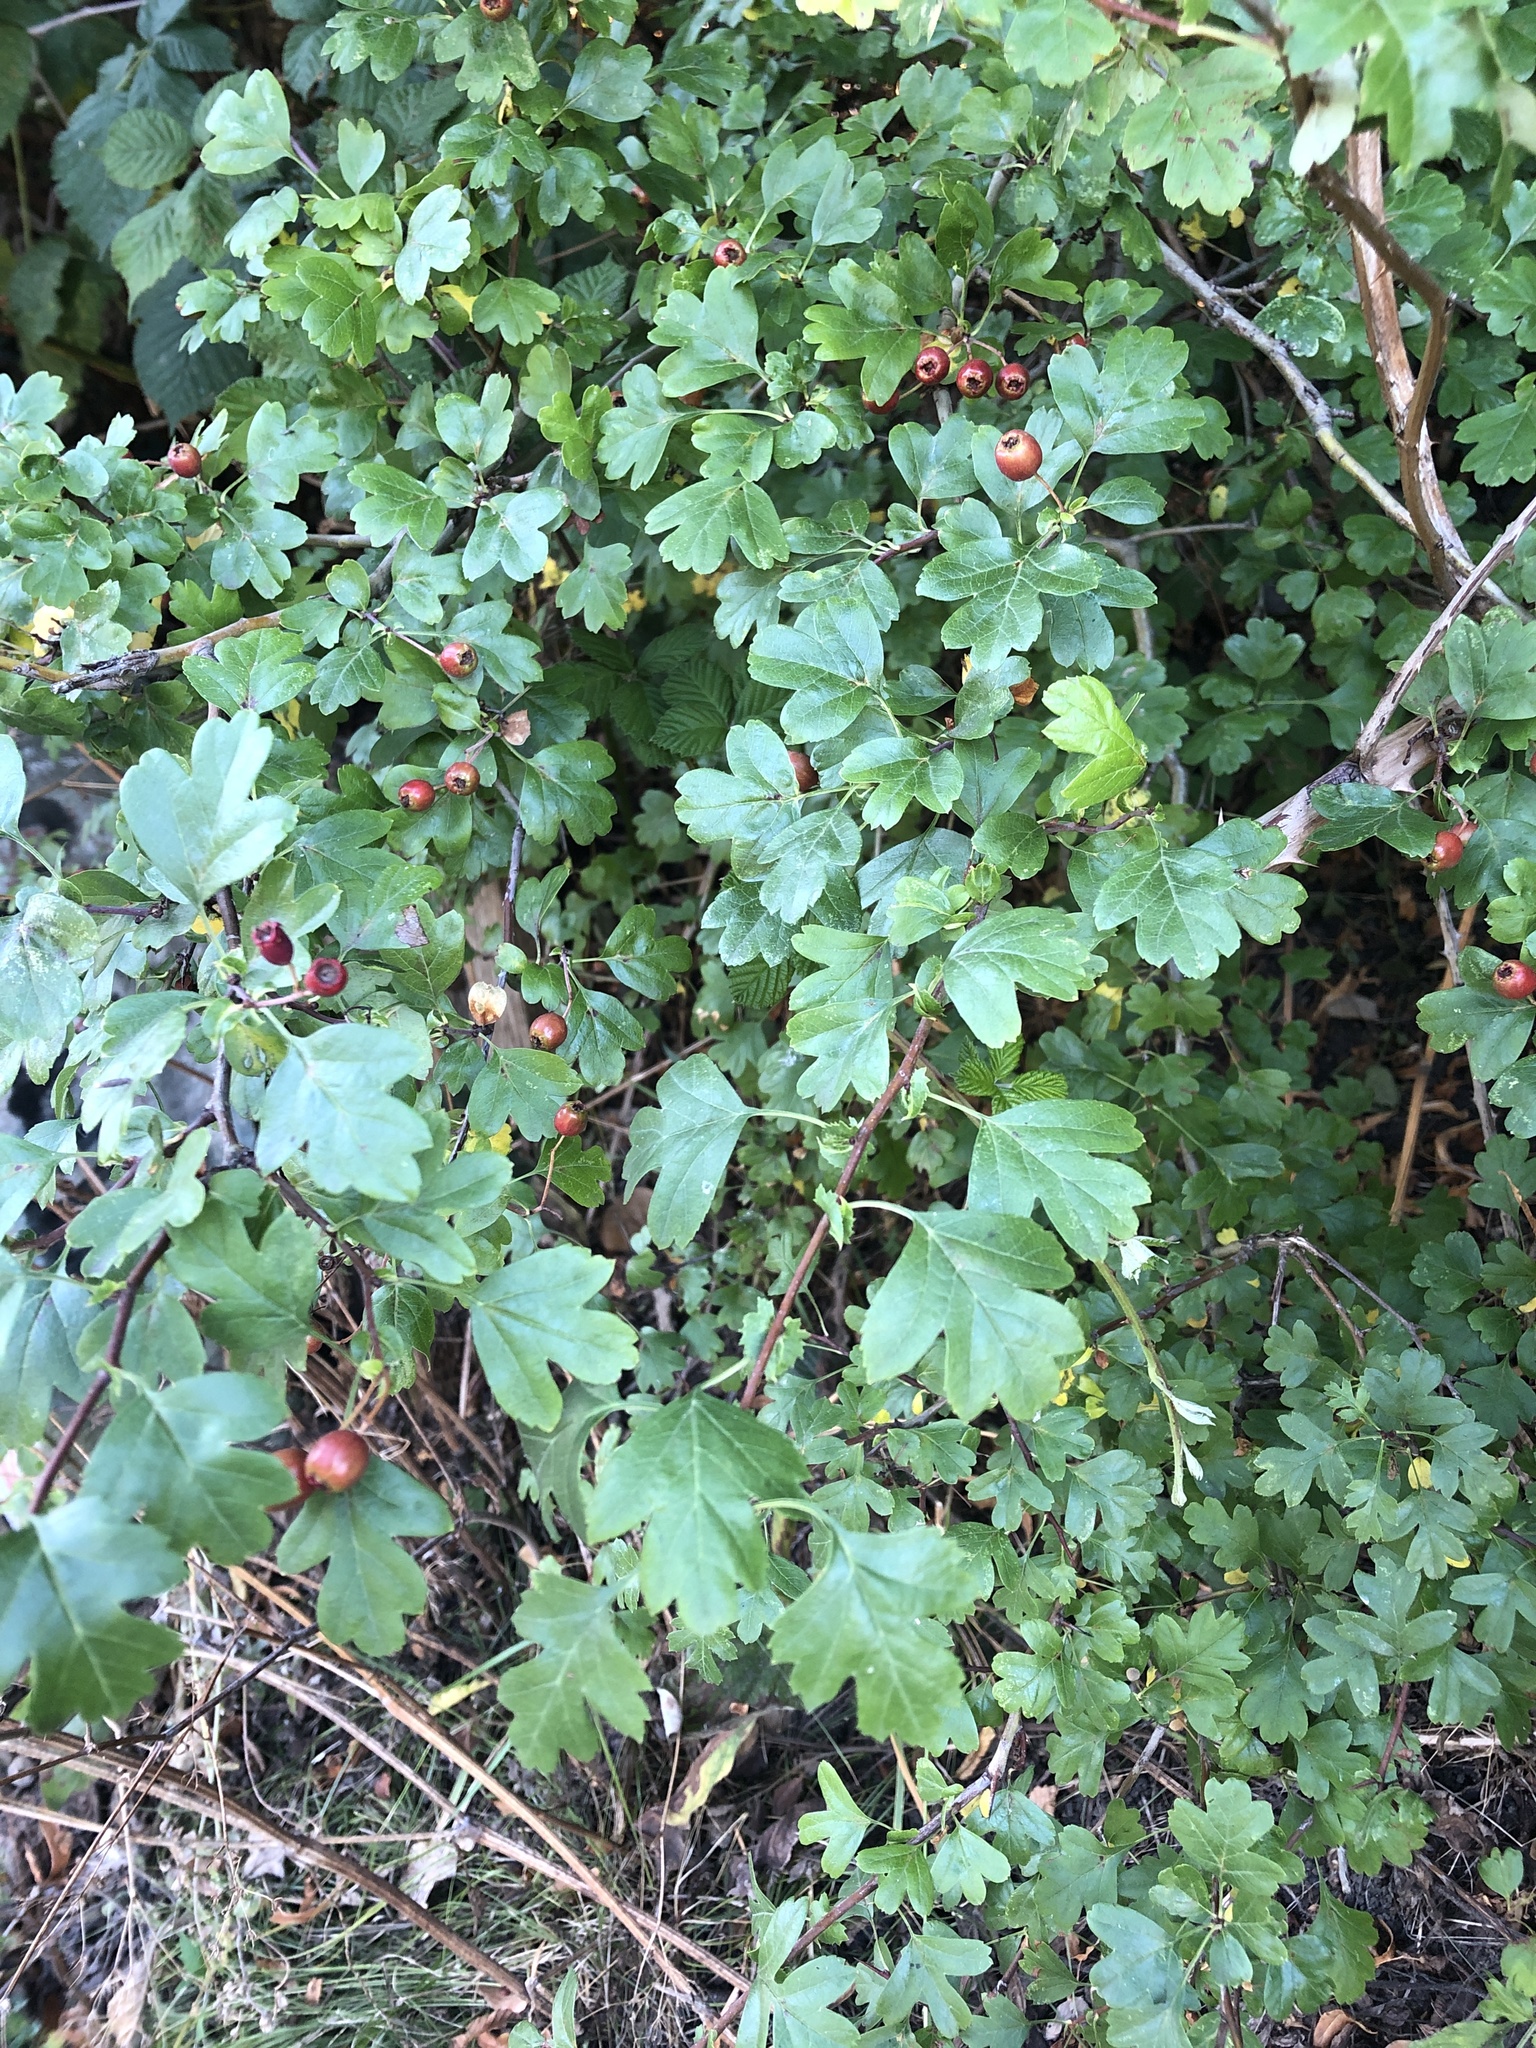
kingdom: Plantae
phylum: Tracheophyta
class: Magnoliopsida
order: Rosales
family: Rosaceae
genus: Crataegus
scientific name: Crataegus monogyna
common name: Hawthorn
